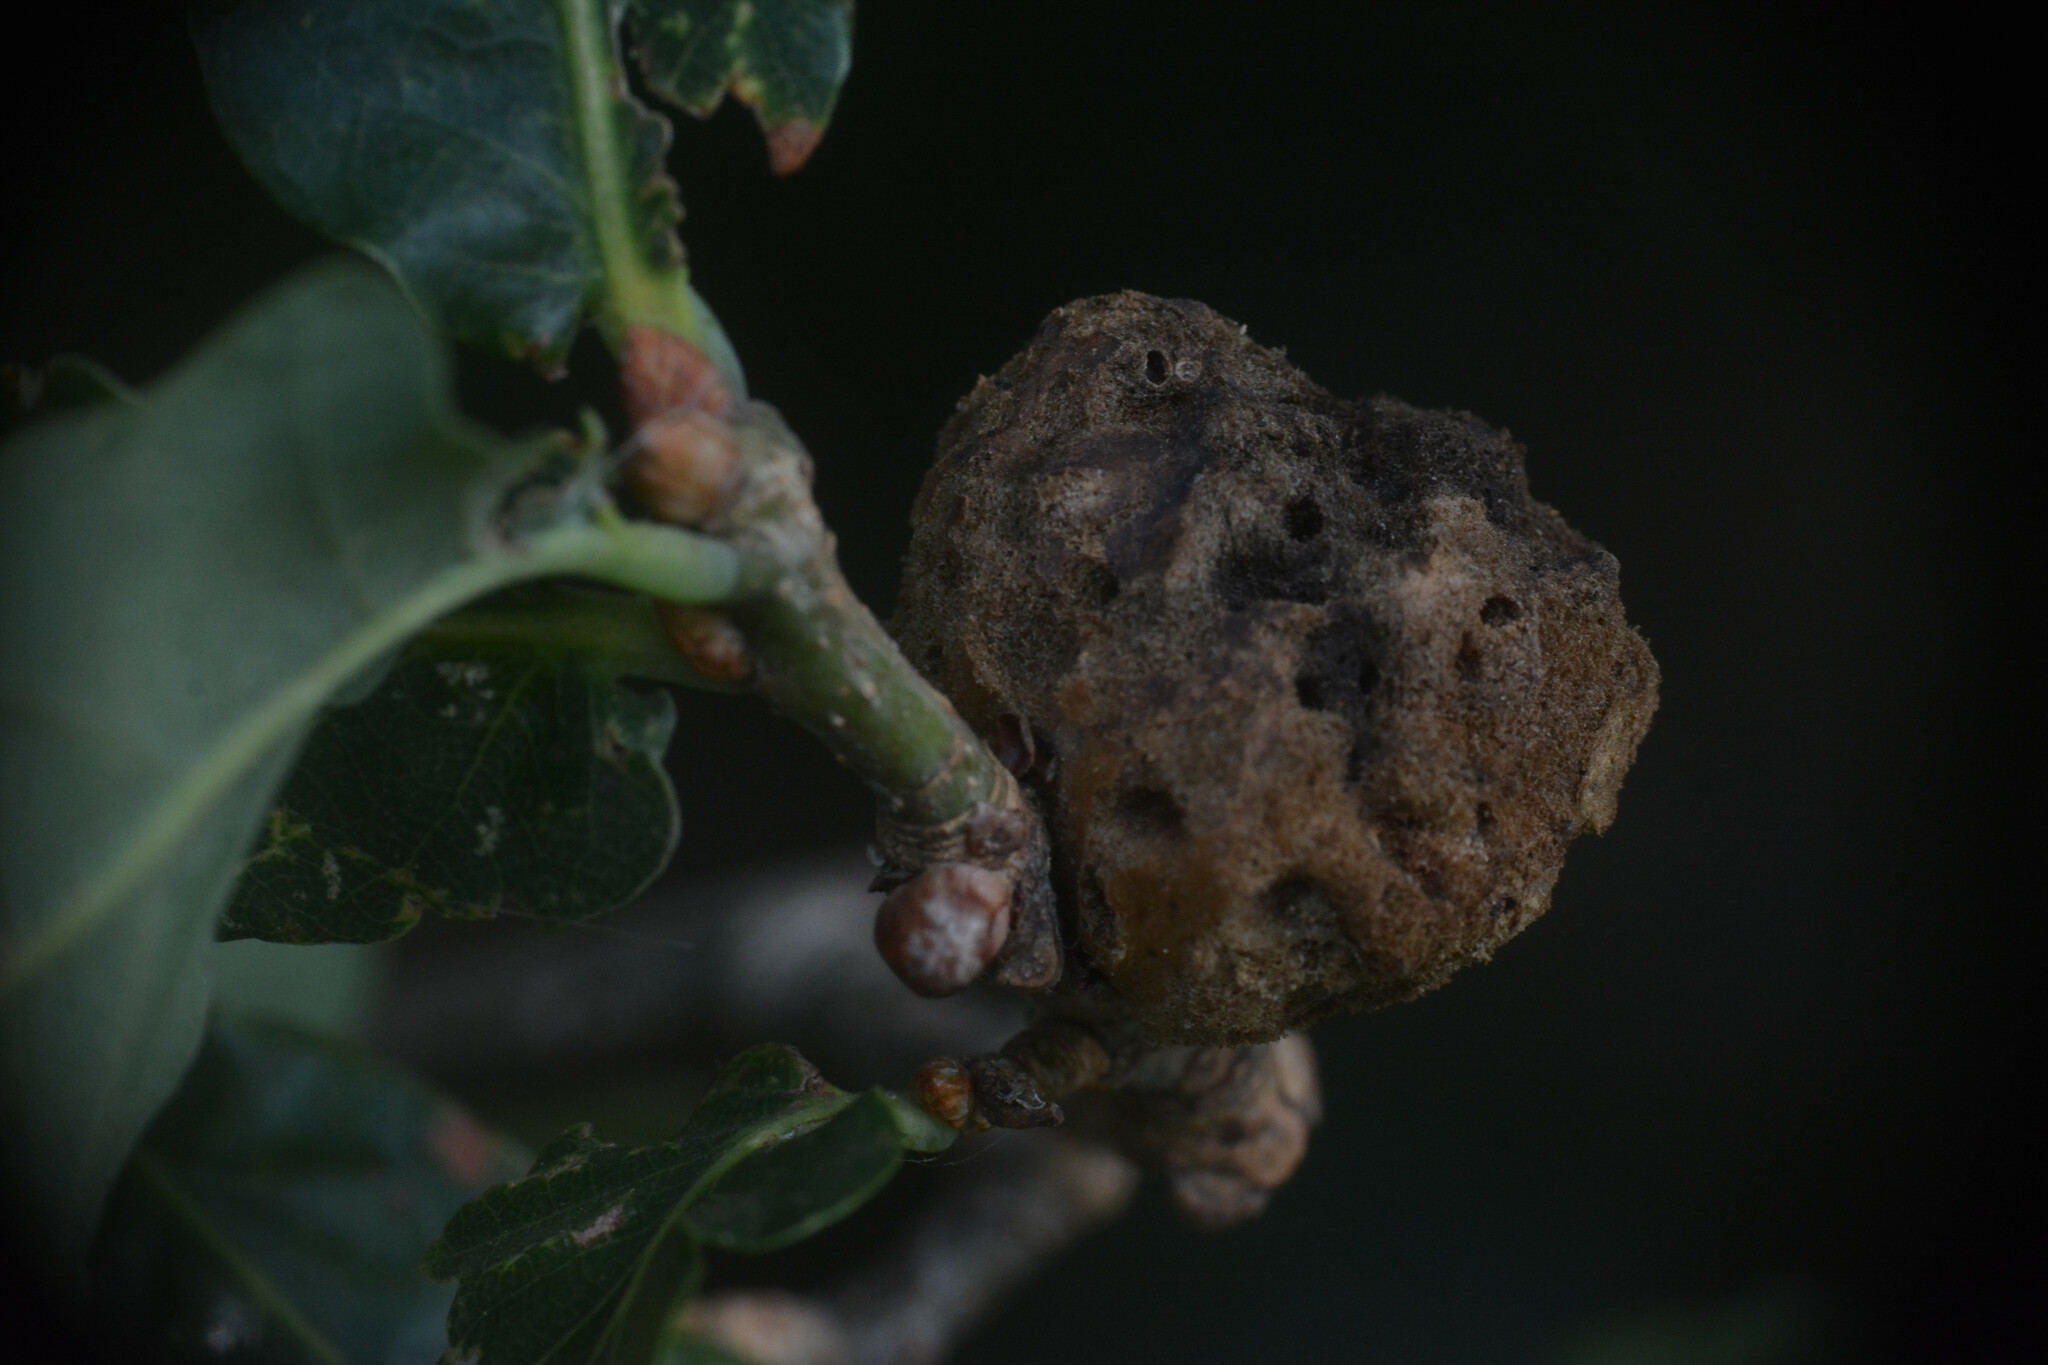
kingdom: Animalia
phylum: Arthropoda
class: Insecta
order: Hymenoptera
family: Cynipidae
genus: Biorhiza
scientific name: Biorhiza pallida
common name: Oak apple
